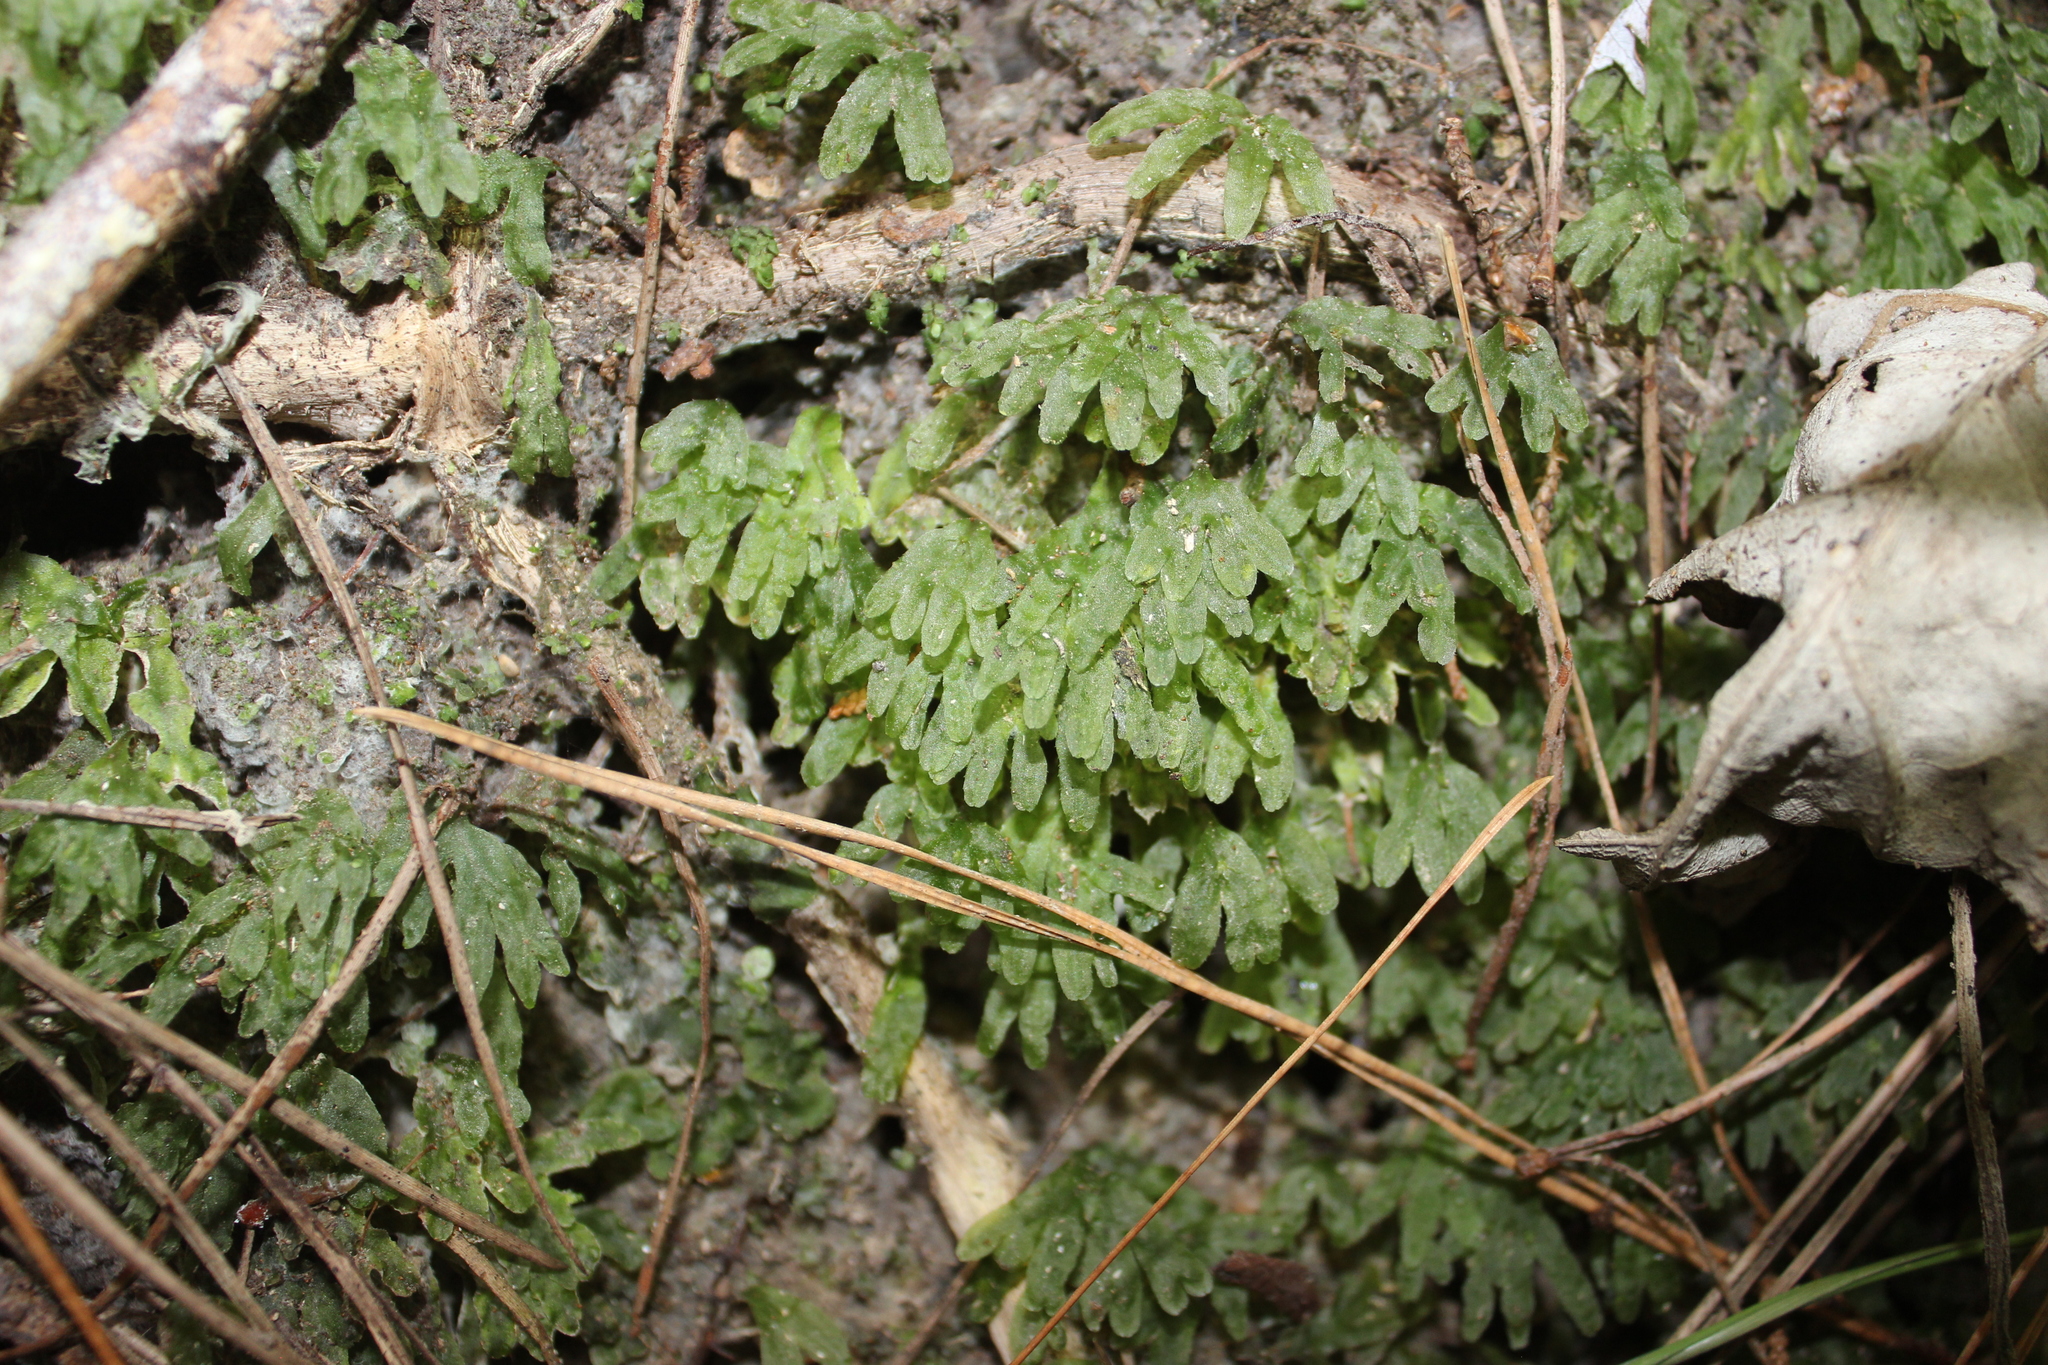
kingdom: Plantae
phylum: Marchantiophyta
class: Jungermanniopsida
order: Pallaviciniales
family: Pallaviciniaceae
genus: Symphyogyna
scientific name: Symphyogyna hymenophyllum
